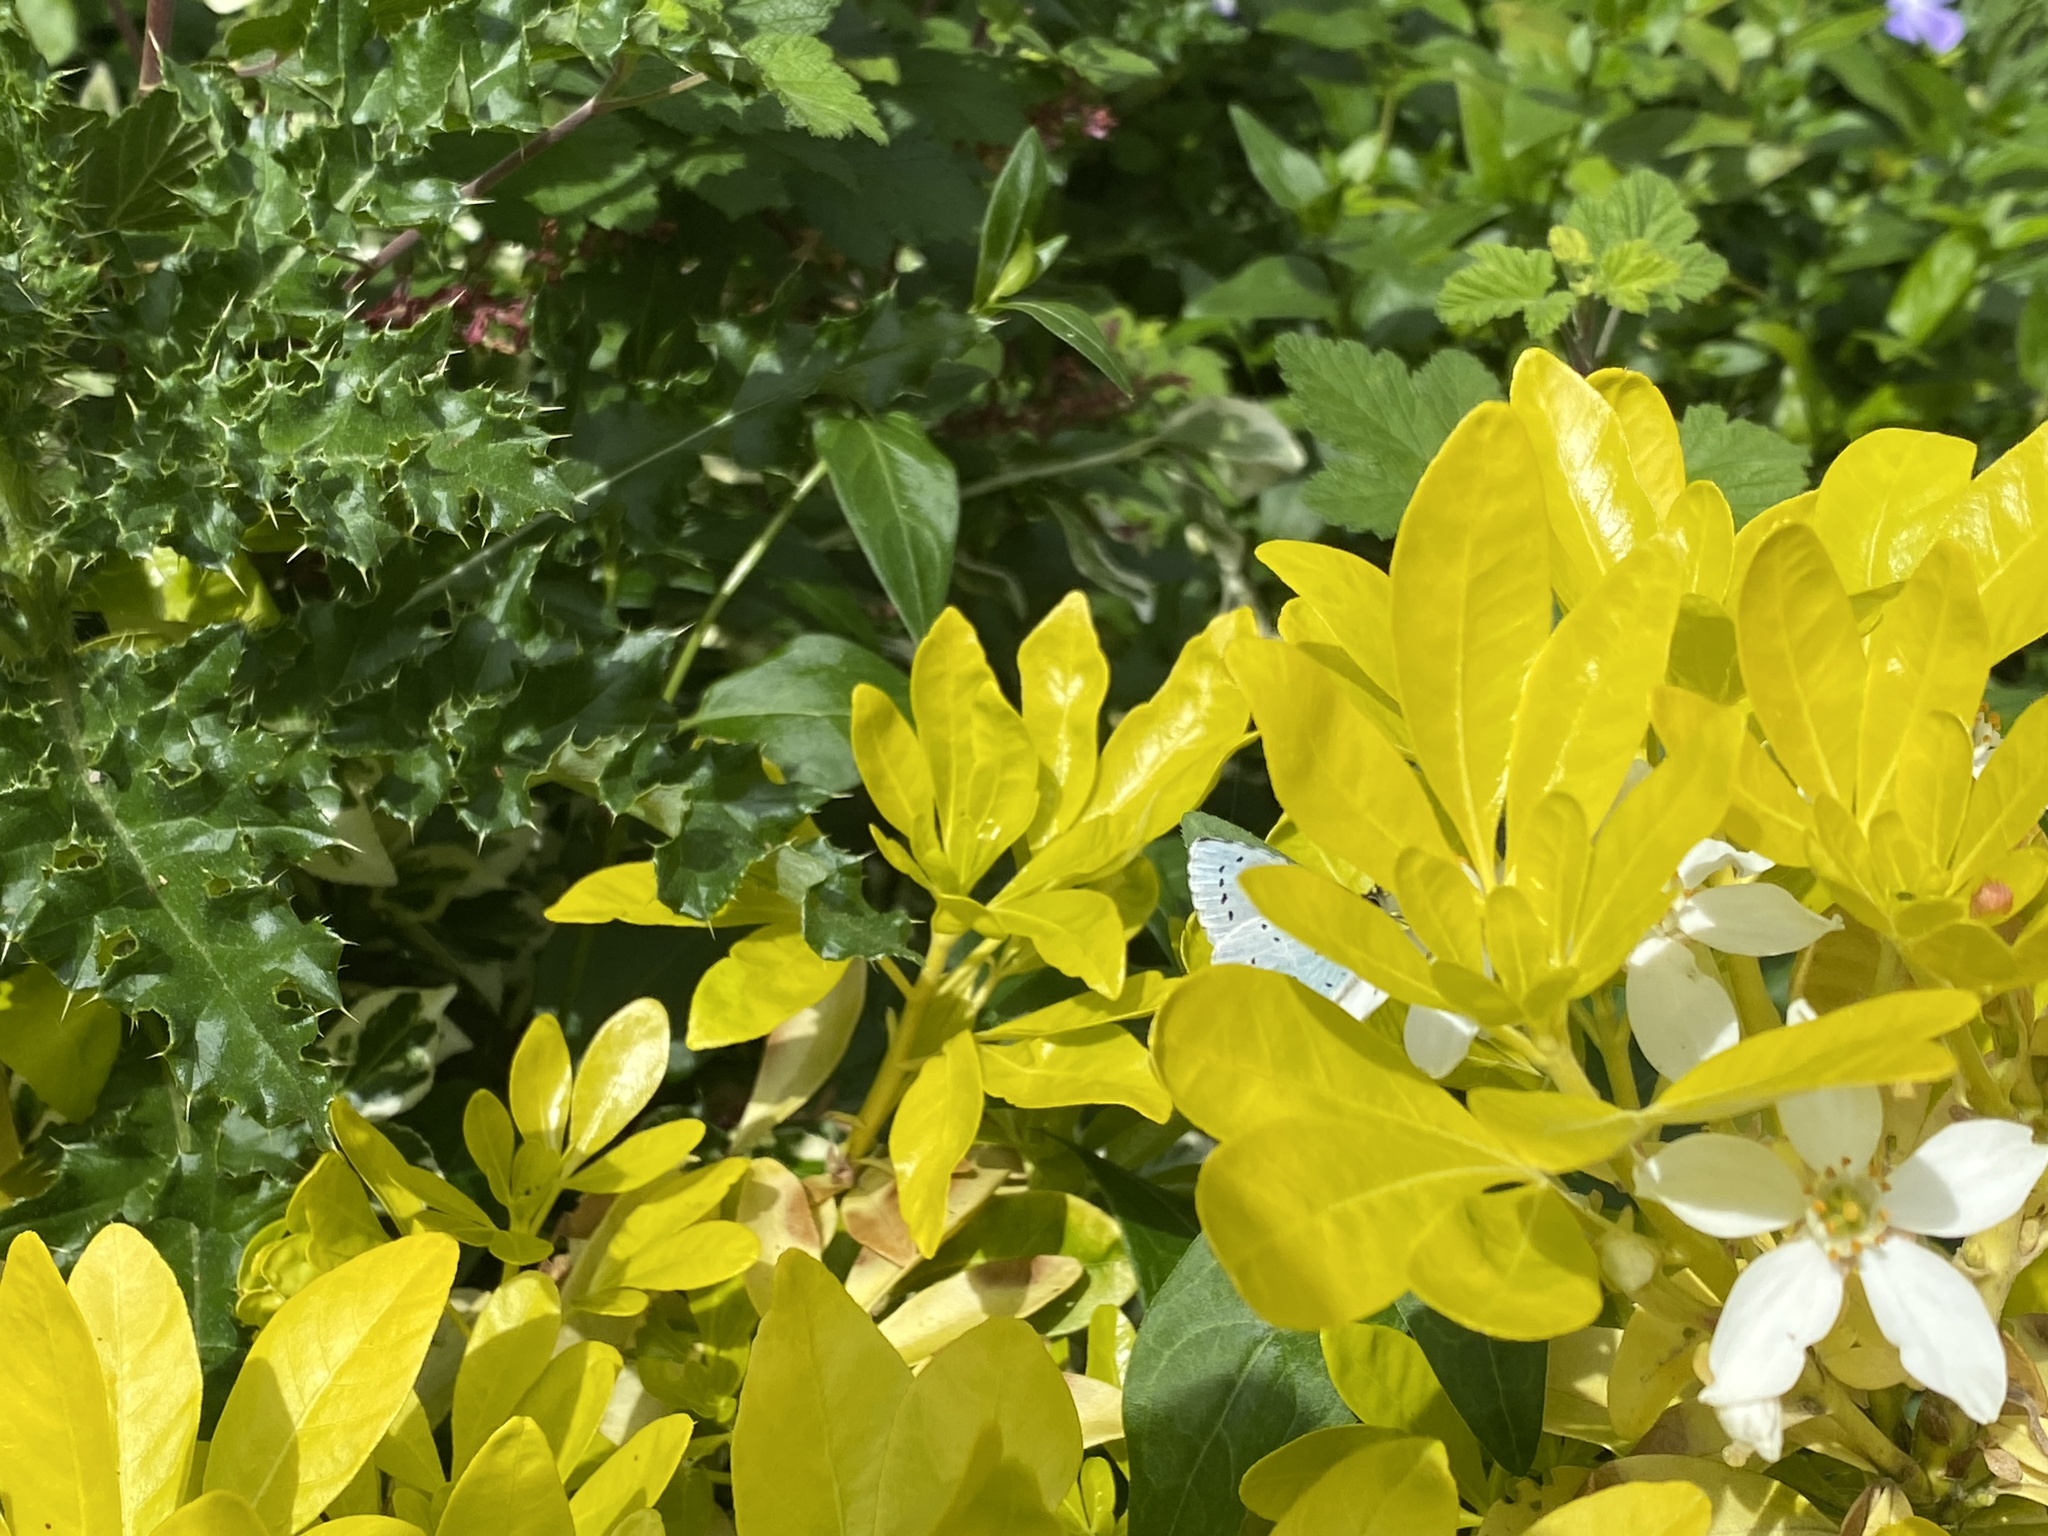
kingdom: Animalia
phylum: Arthropoda
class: Insecta
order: Lepidoptera
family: Lycaenidae
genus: Celastrina
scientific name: Celastrina argiolus
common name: Holly blue
